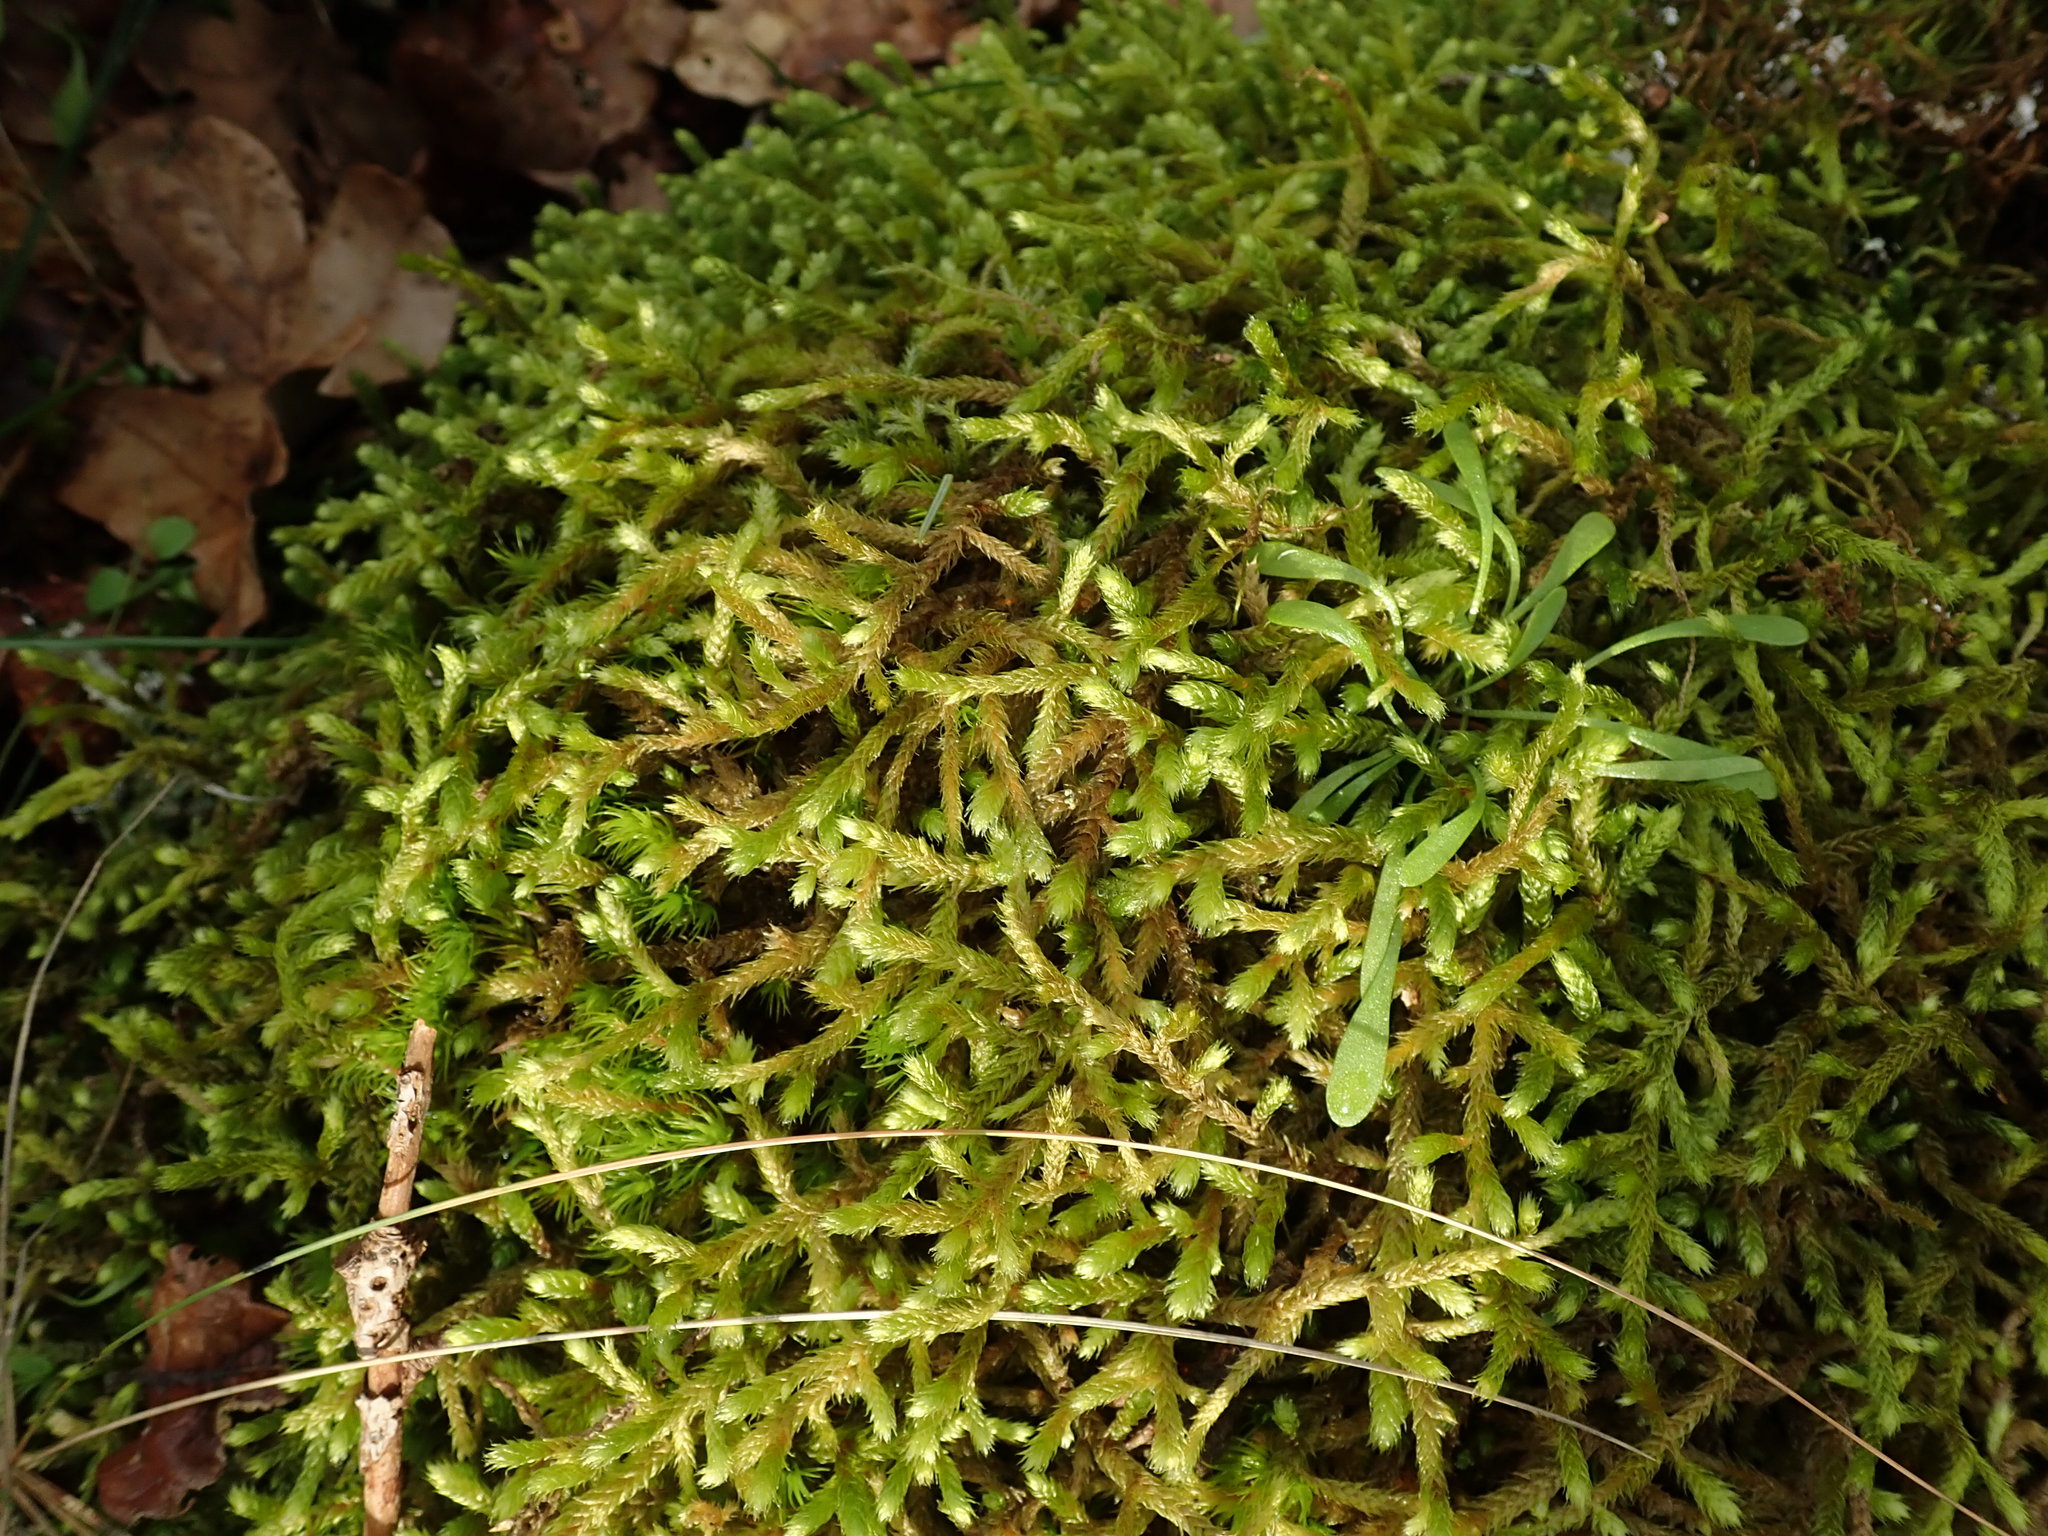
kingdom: Plantae
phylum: Bryophyta
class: Bryopsida
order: Hypnales
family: Antitrichiaceae
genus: Antitrichia
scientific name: Antitrichia curtipendula
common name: Pendulous wing-moss
